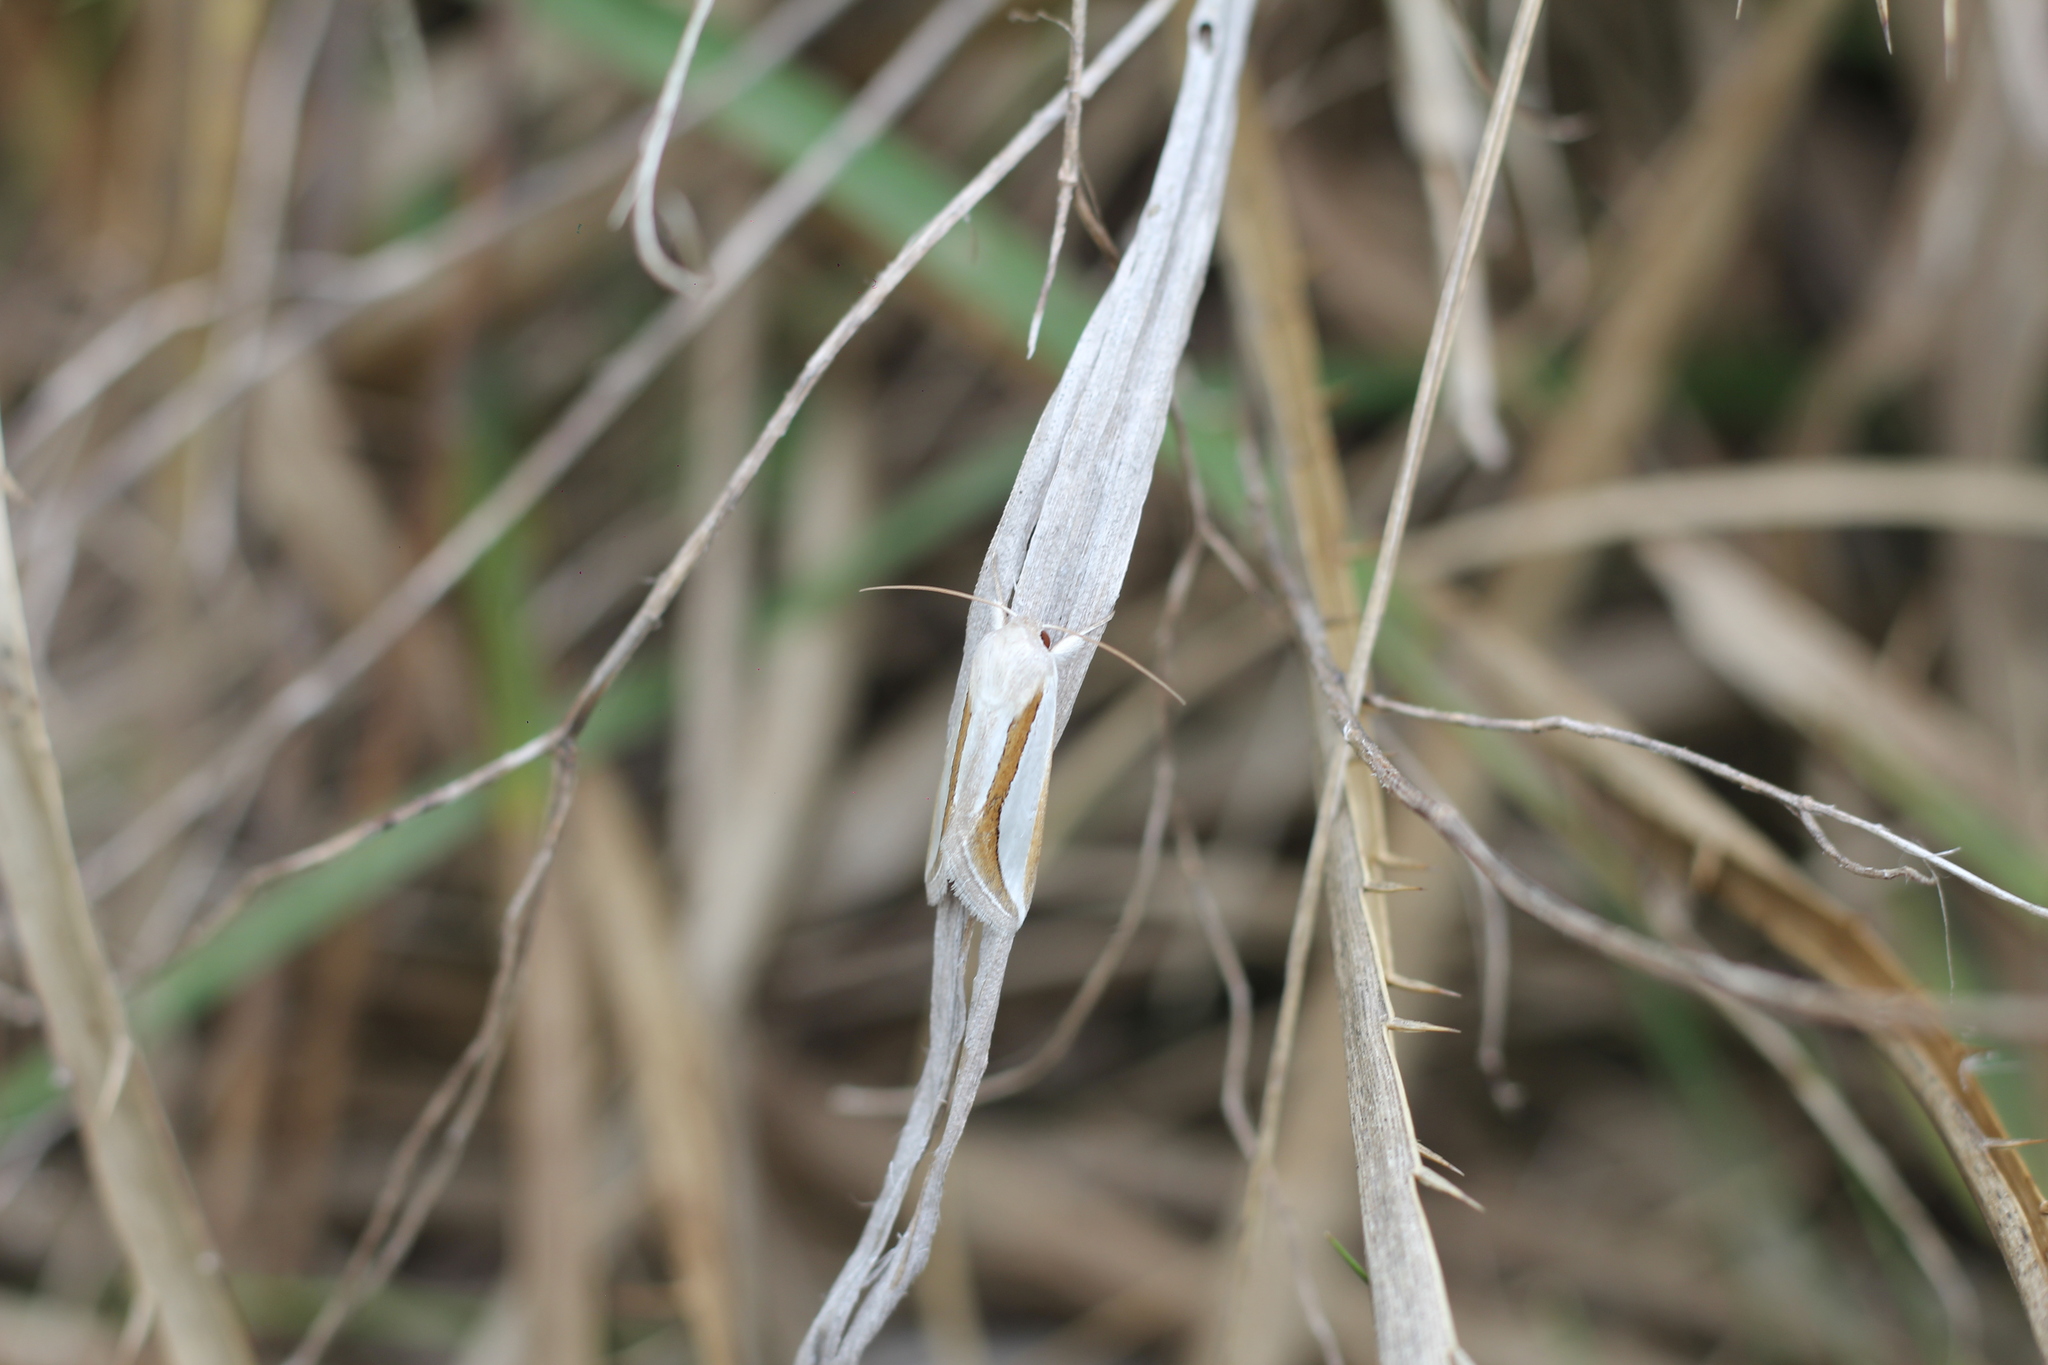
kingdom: Animalia
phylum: Arthropoda
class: Insecta
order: Lepidoptera
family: Noctuidae
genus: Cucullia
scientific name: Cucullia argyrina
